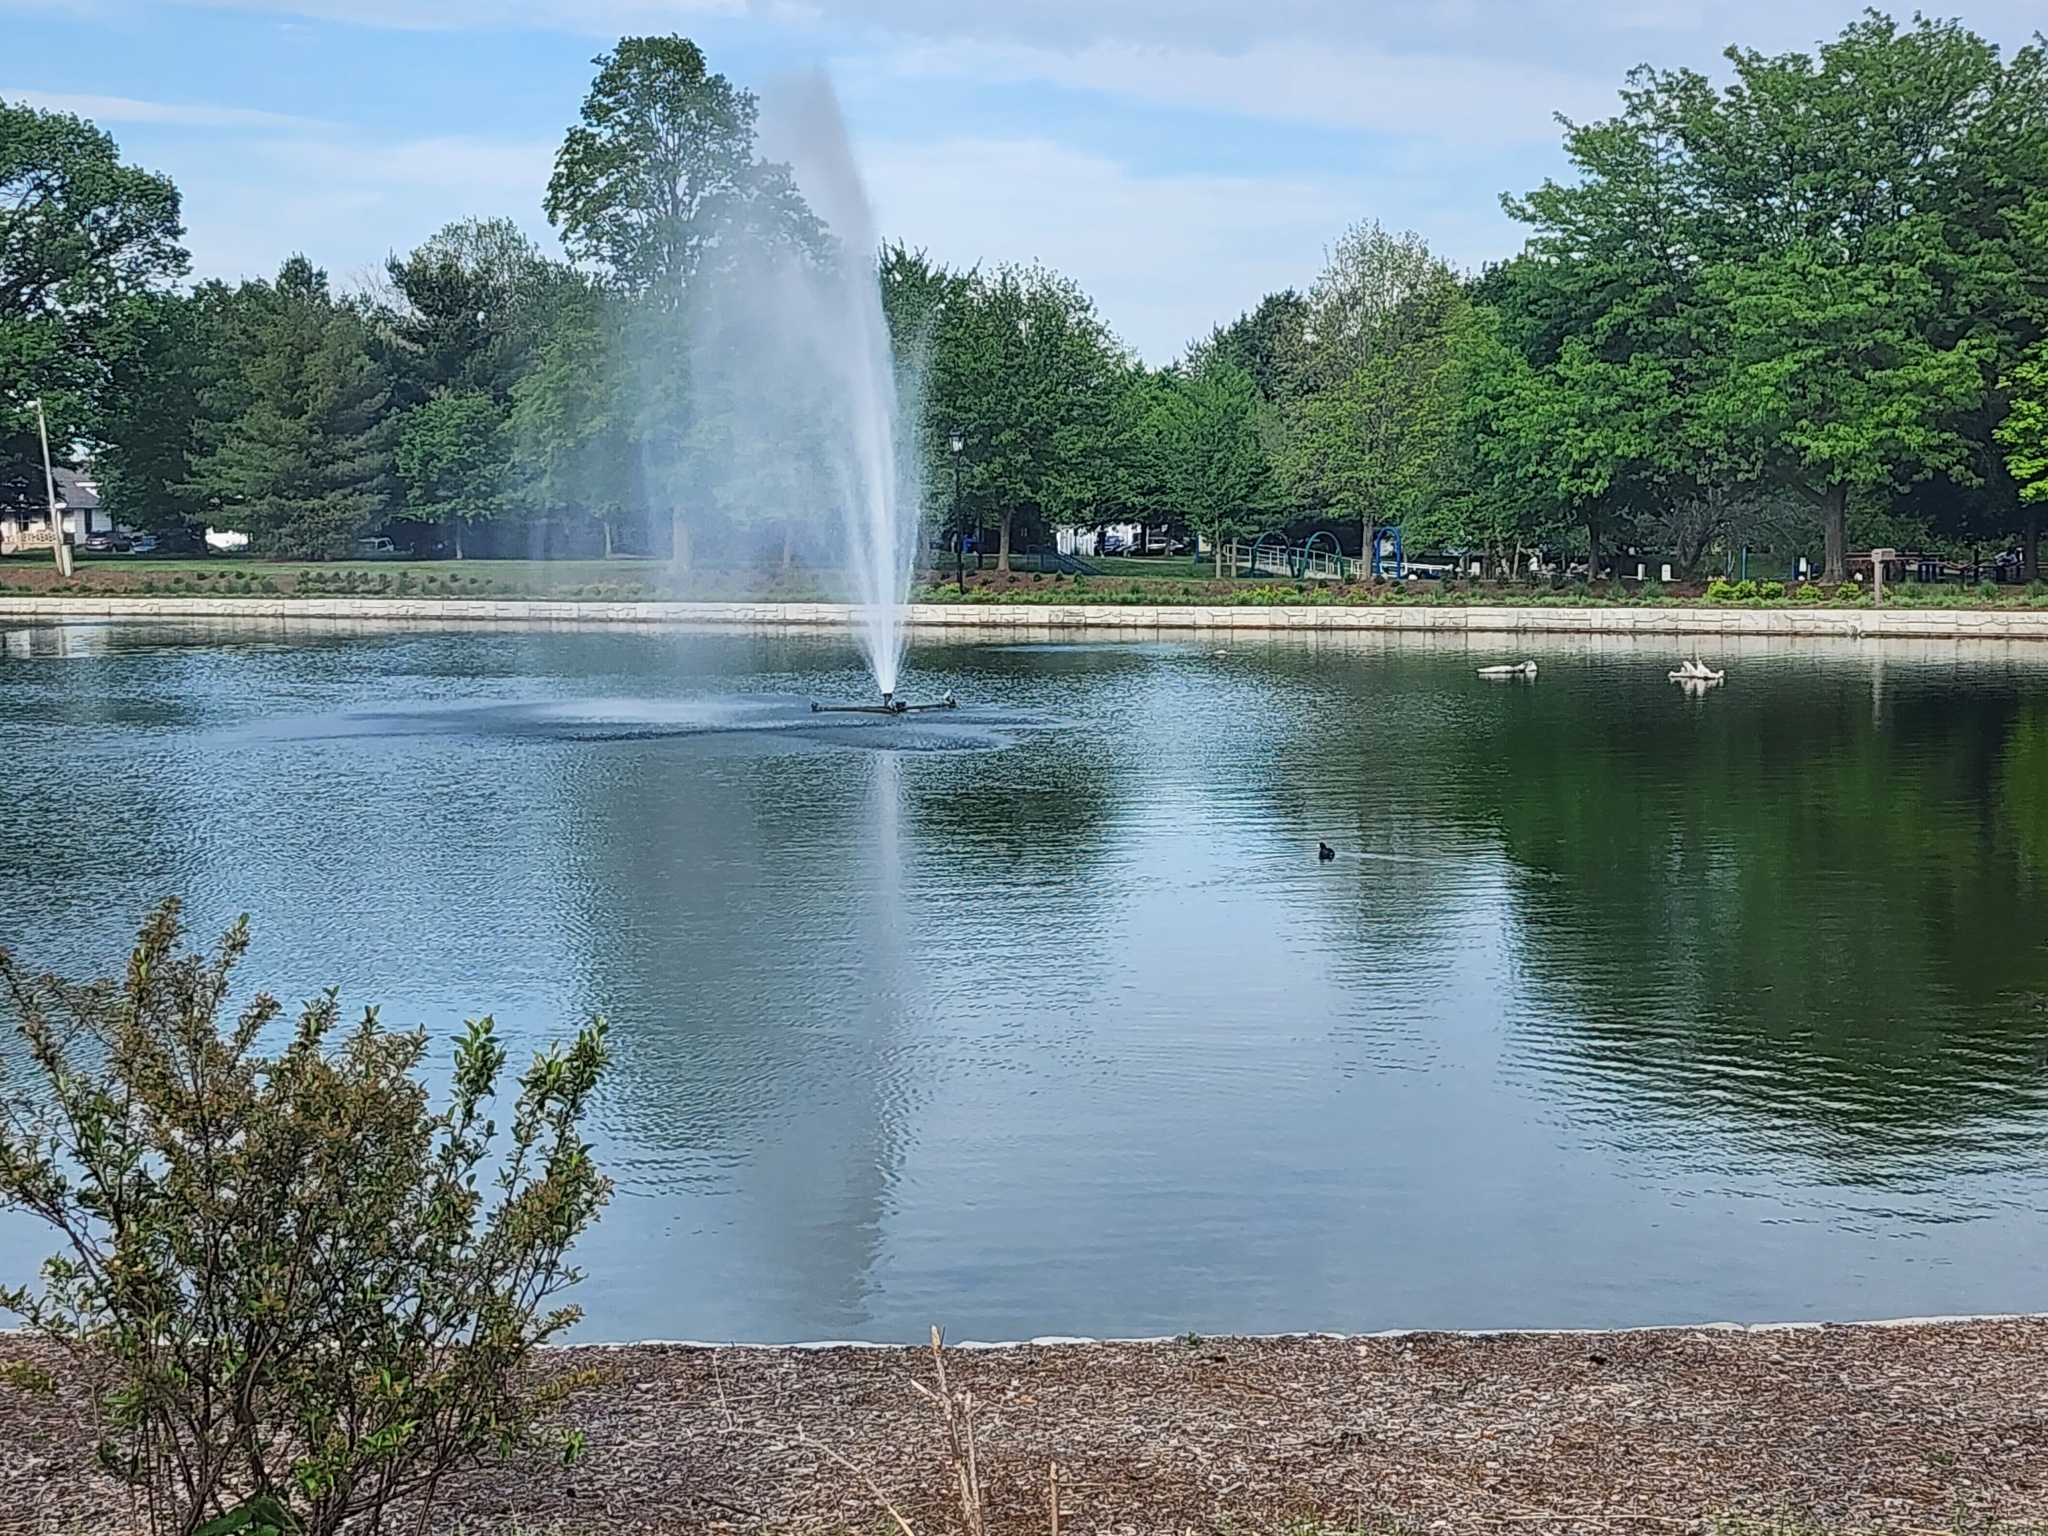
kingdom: Animalia
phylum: Chordata
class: Aves
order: Gruiformes
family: Rallidae
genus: Fulica
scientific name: Fulica americana
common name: American coot
